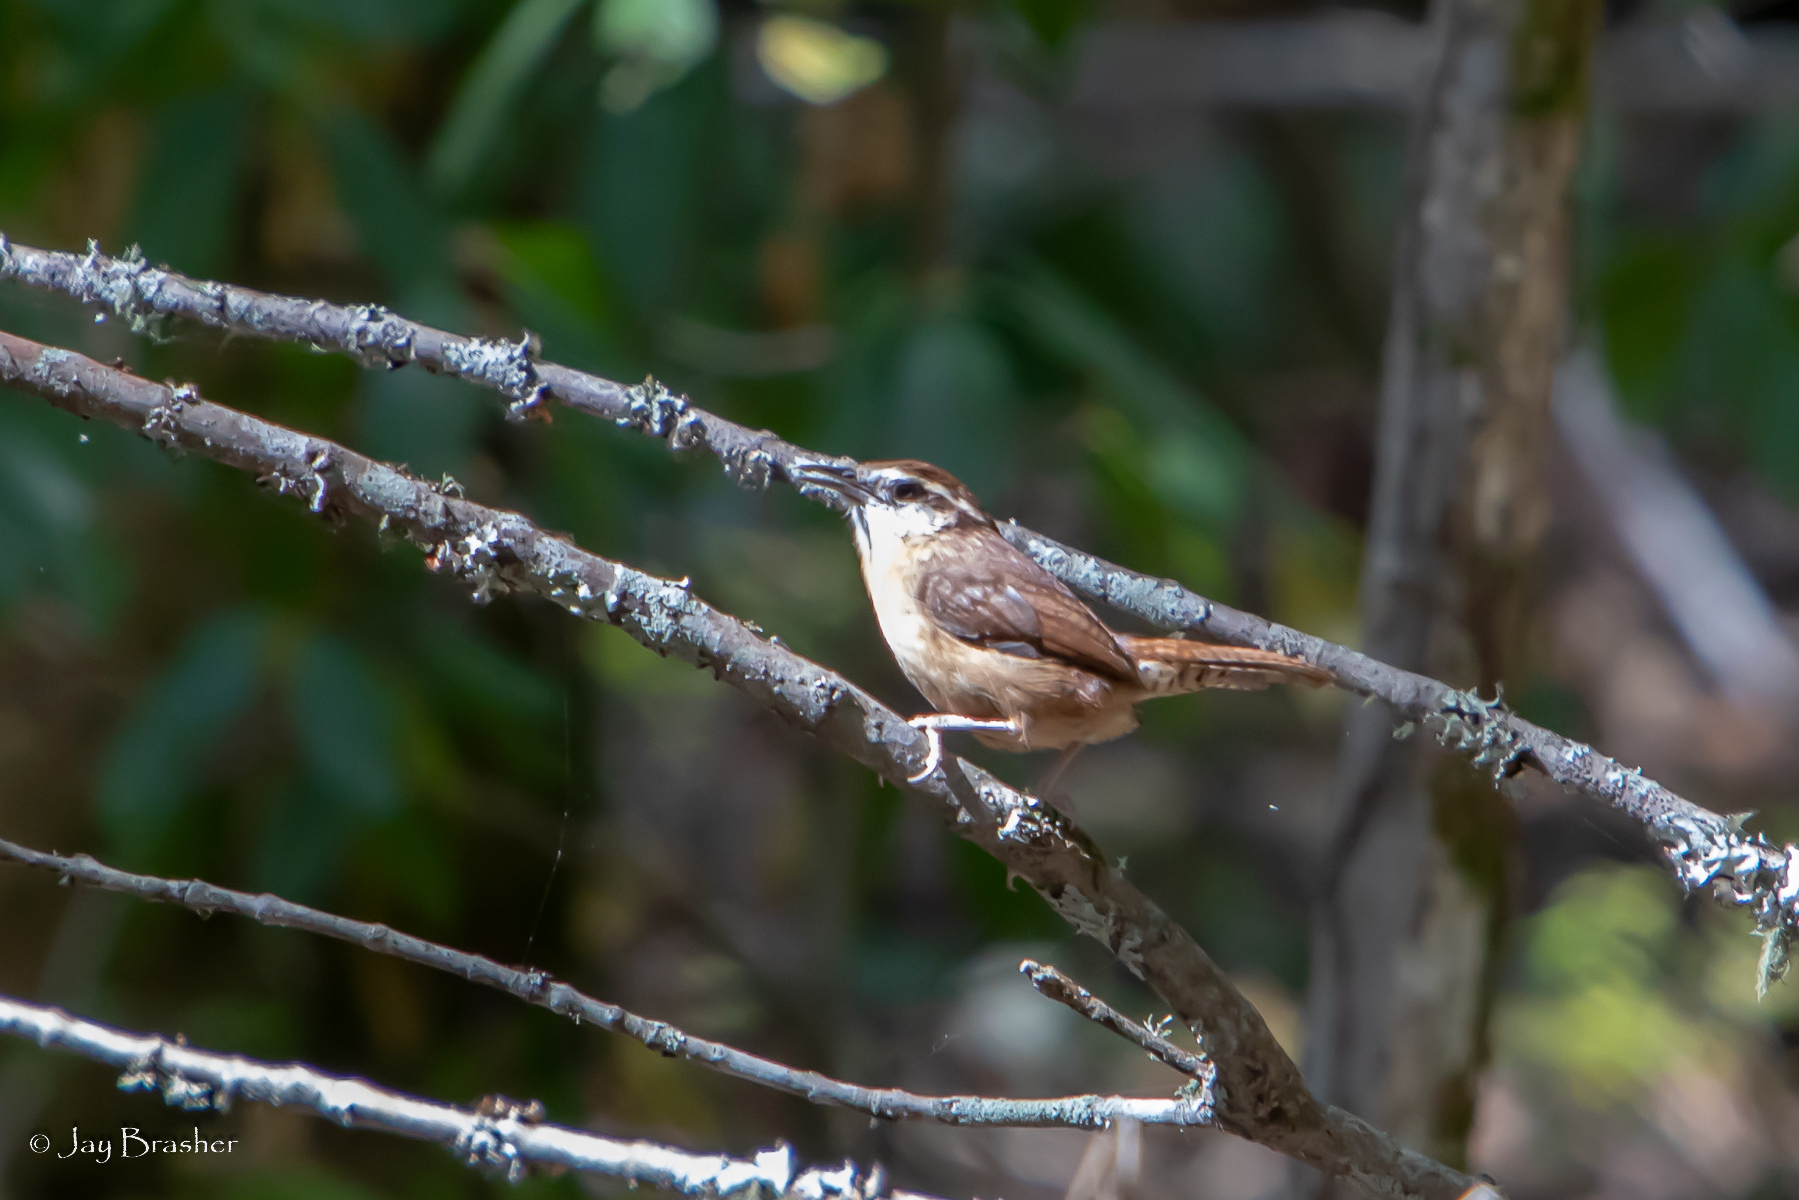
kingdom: Animalia
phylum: Chordata
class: Aves
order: Passeriformes
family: Troglodytidae
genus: Thryothorus
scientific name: Thryothorus ludovicianus
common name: Carolina wren
